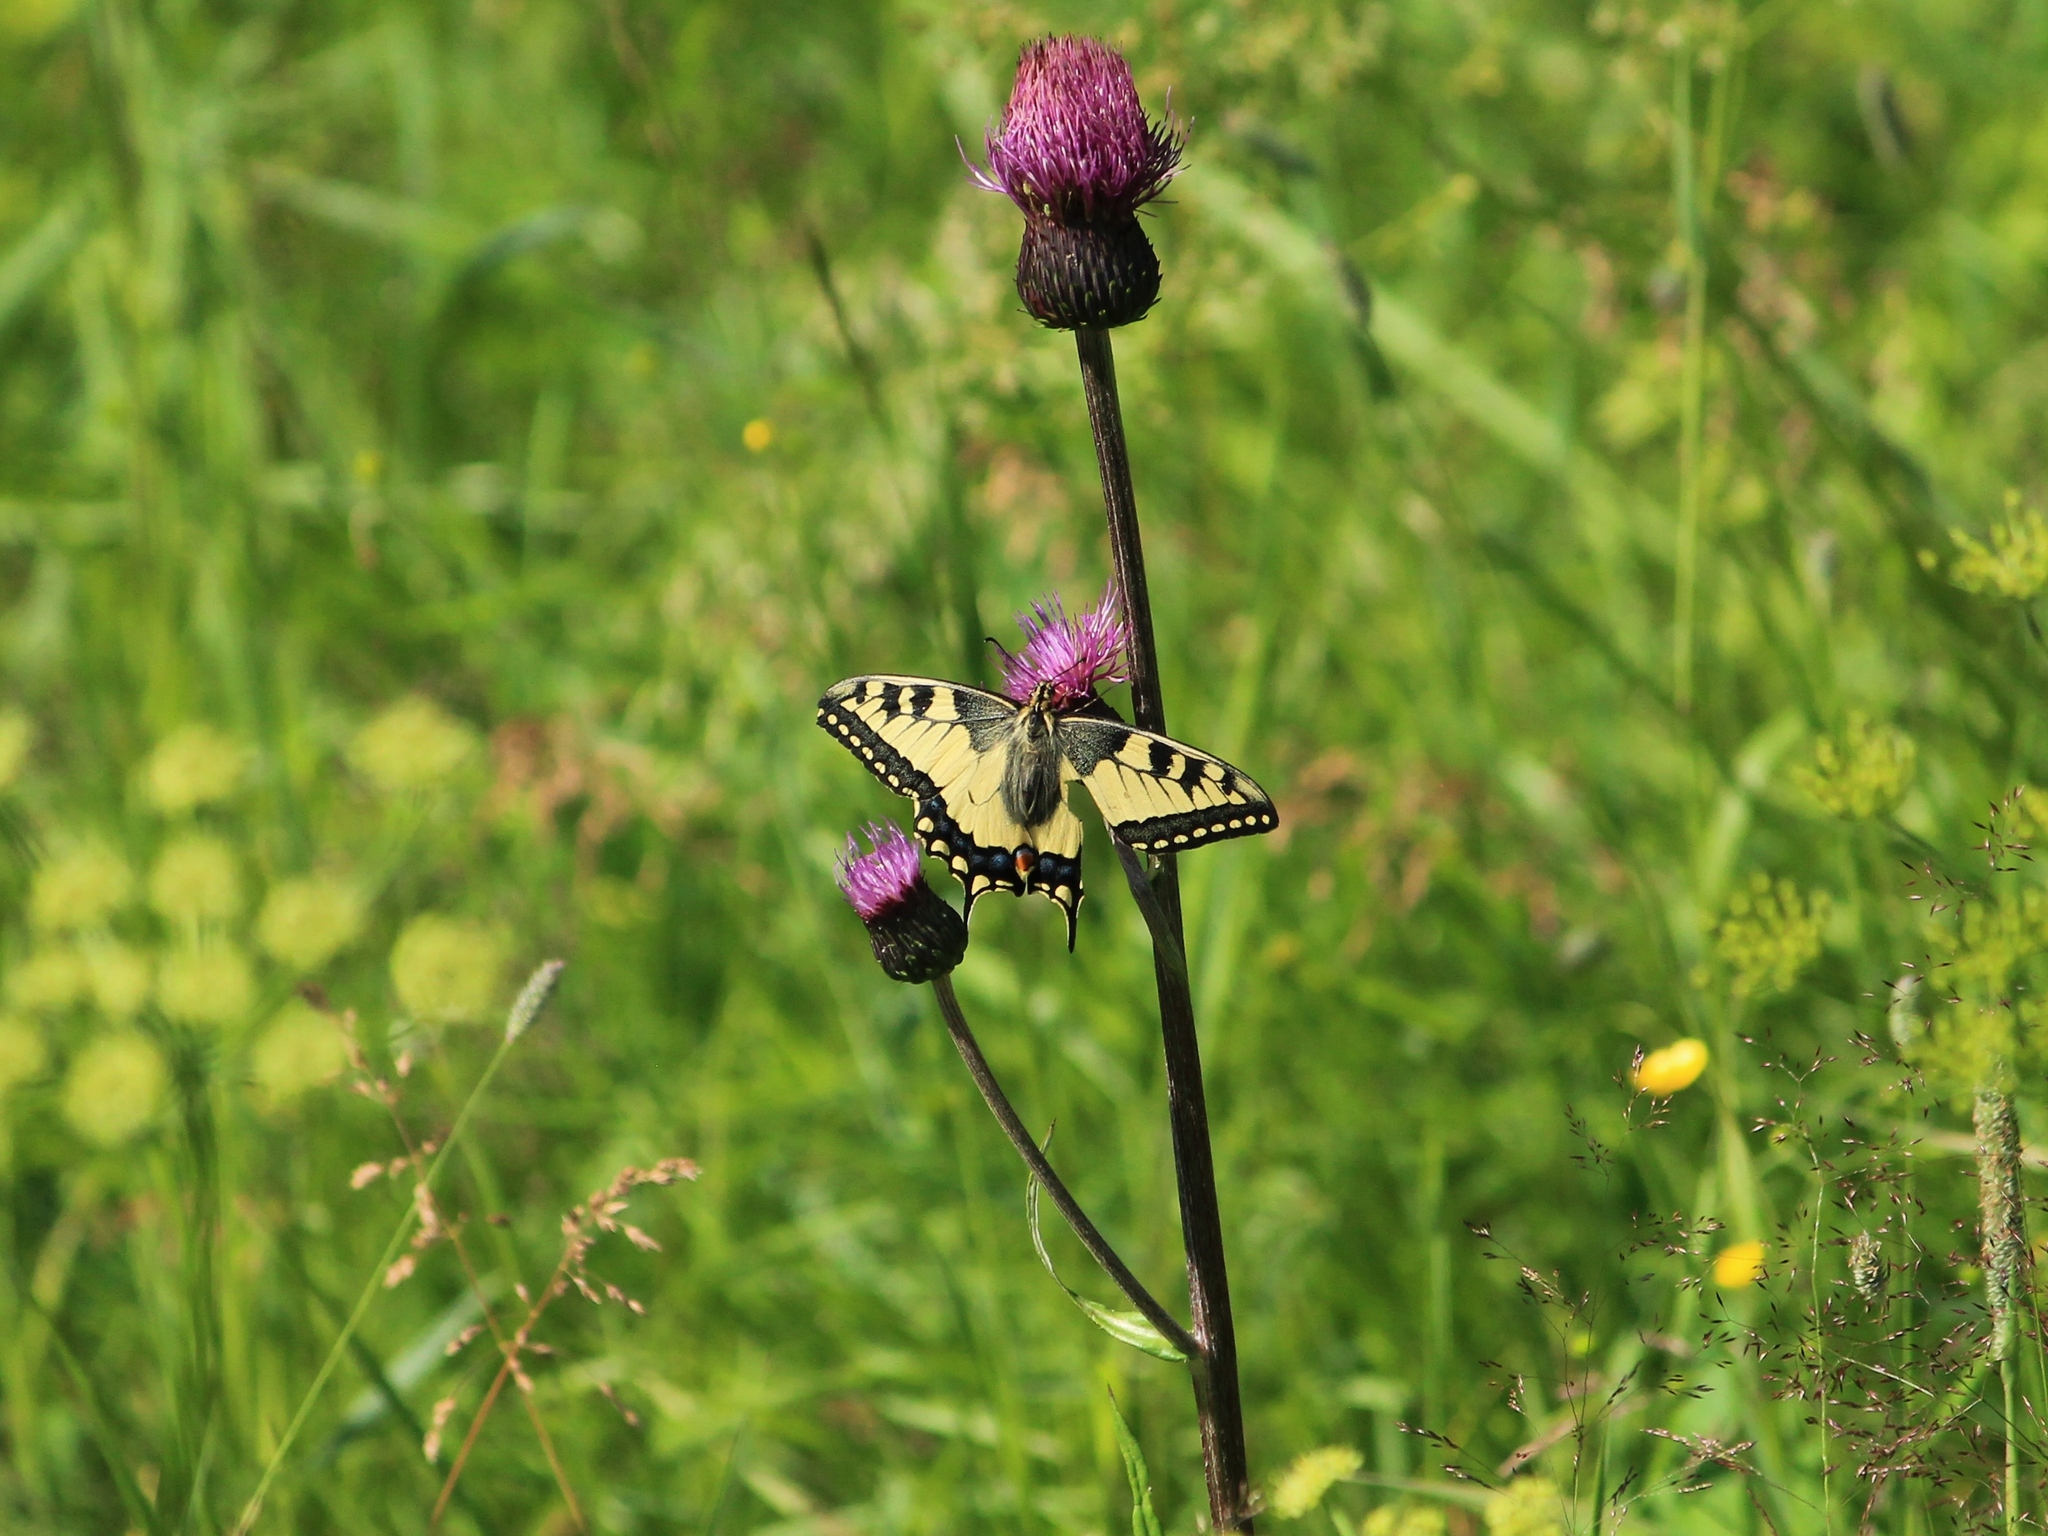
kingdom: Animalia
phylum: Arthropoda
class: Insecta
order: Lepidoptera
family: Papilionidae
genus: Papilio
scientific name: Papilio machaon
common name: Swallowtail
